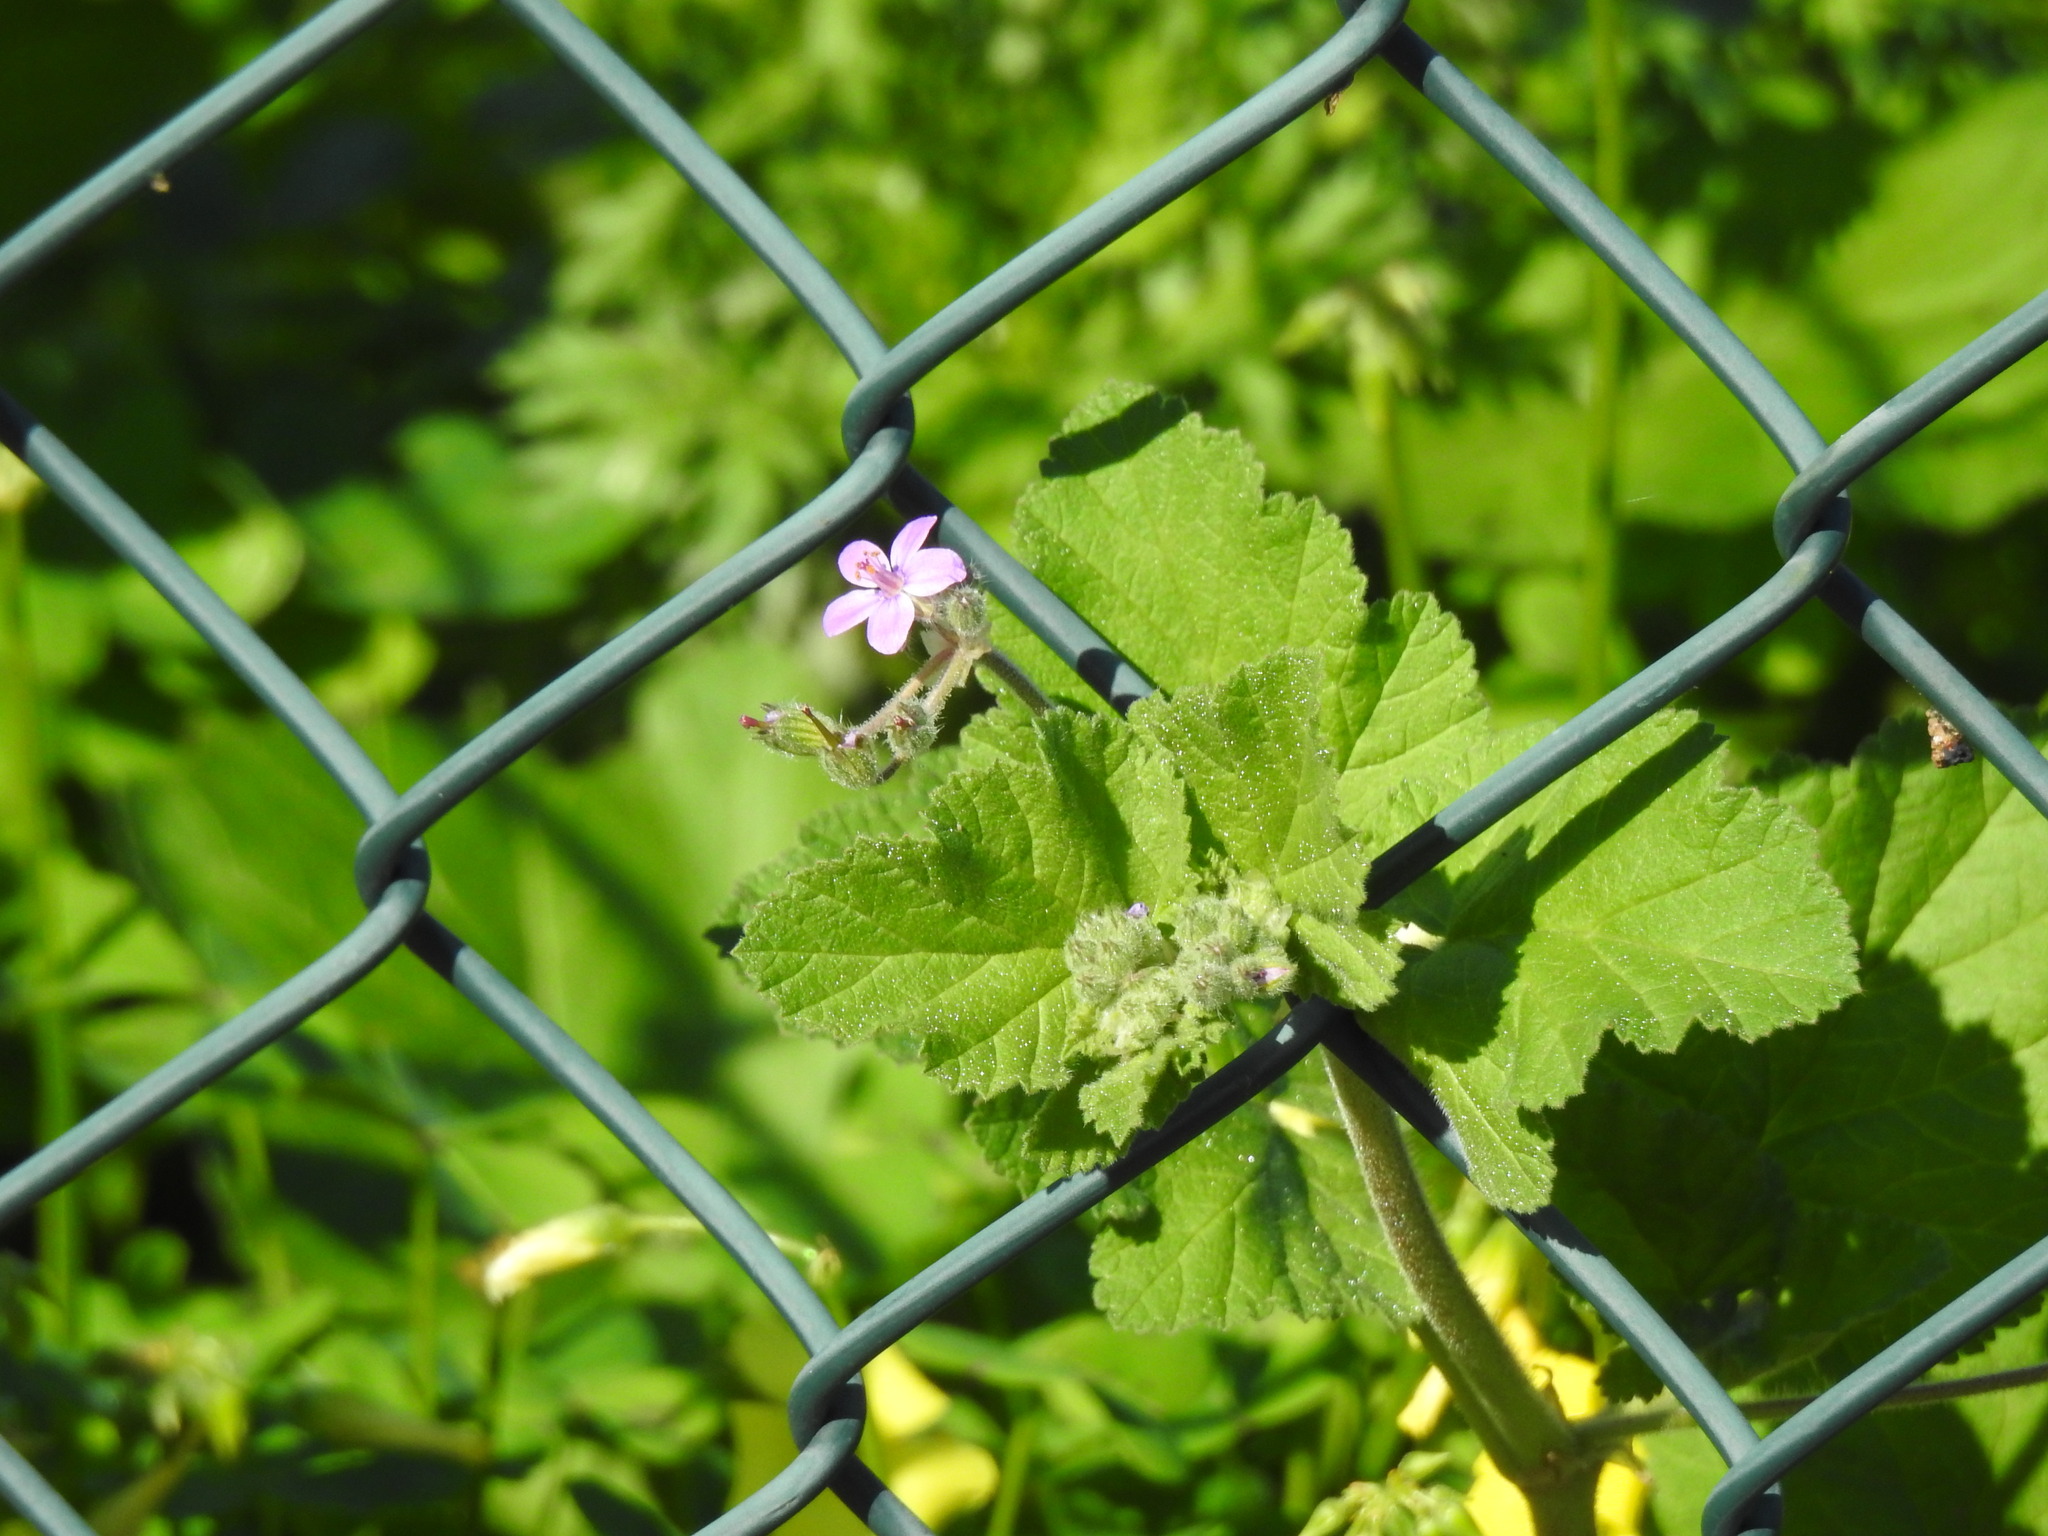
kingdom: Plantae
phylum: Tracheophyta
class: Magnoliopsida
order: Geraniales
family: Geraniaceae
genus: Erodium
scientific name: Erodium malacoides
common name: Soft stork's-bill
